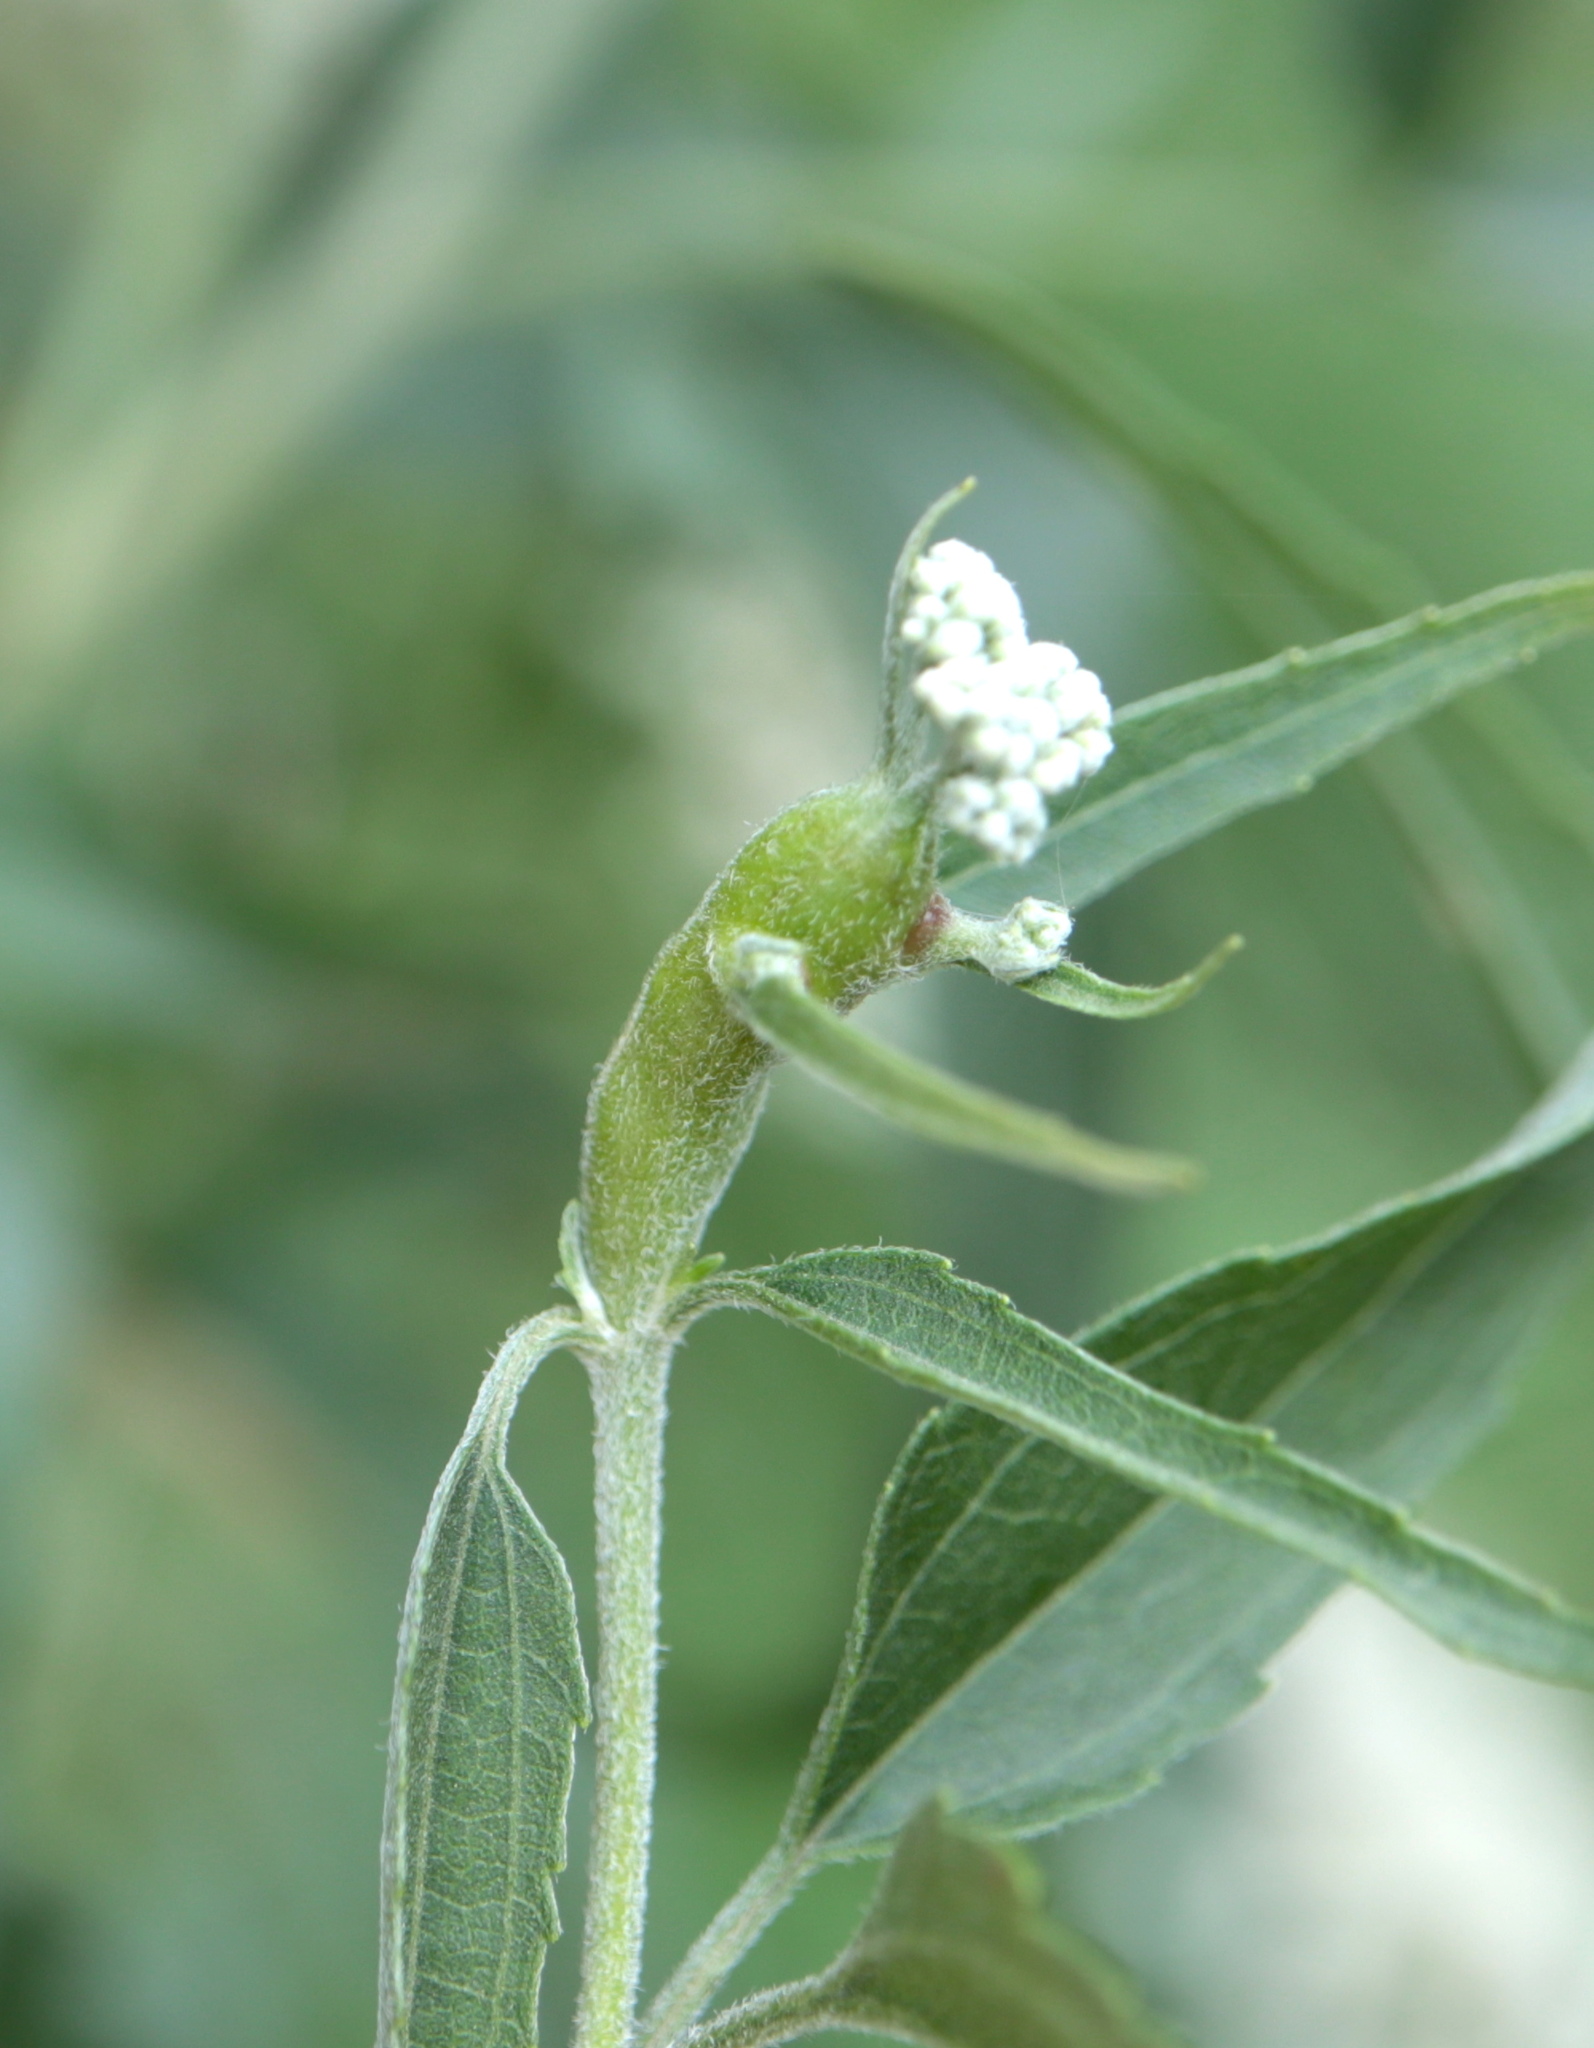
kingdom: Animalia
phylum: Arthropoda
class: Insecta
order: Diptera
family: Cecidomyiidae
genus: Neolasioptera
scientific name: Neolasioptera perfoliata
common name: Boneset stem midge
